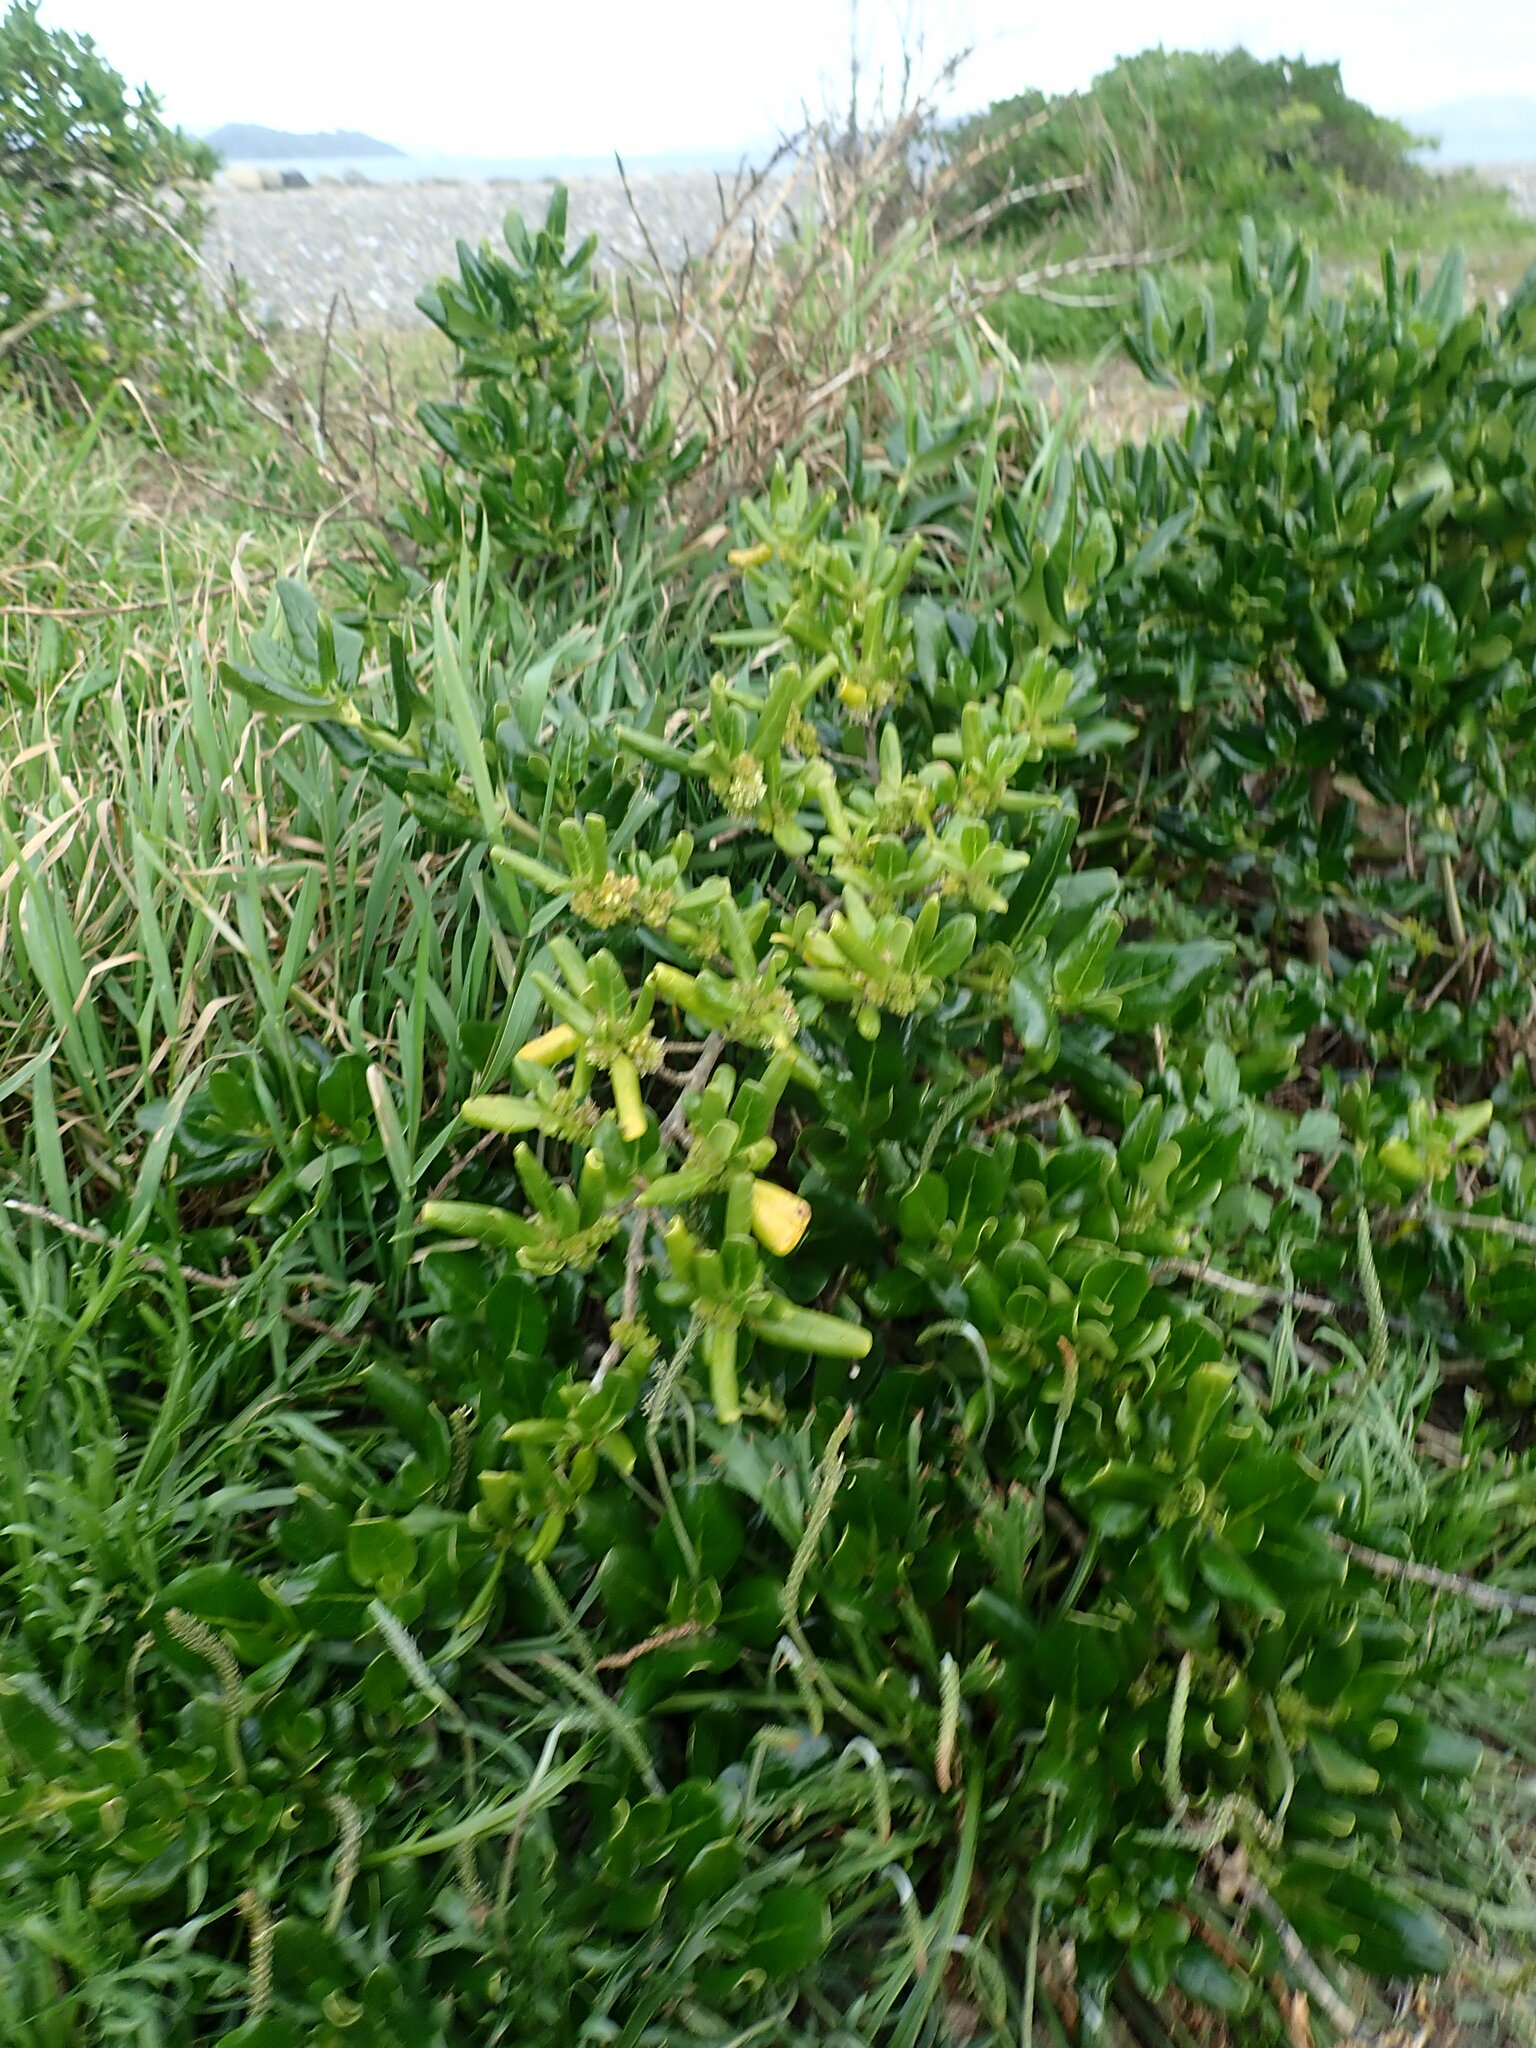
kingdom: Plantae
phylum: Tracheophyta
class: Magnoliopsida
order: Gentianales
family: Rubiaceae
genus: Coprosma
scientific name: Coprosma repens
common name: Tree bedstraw
